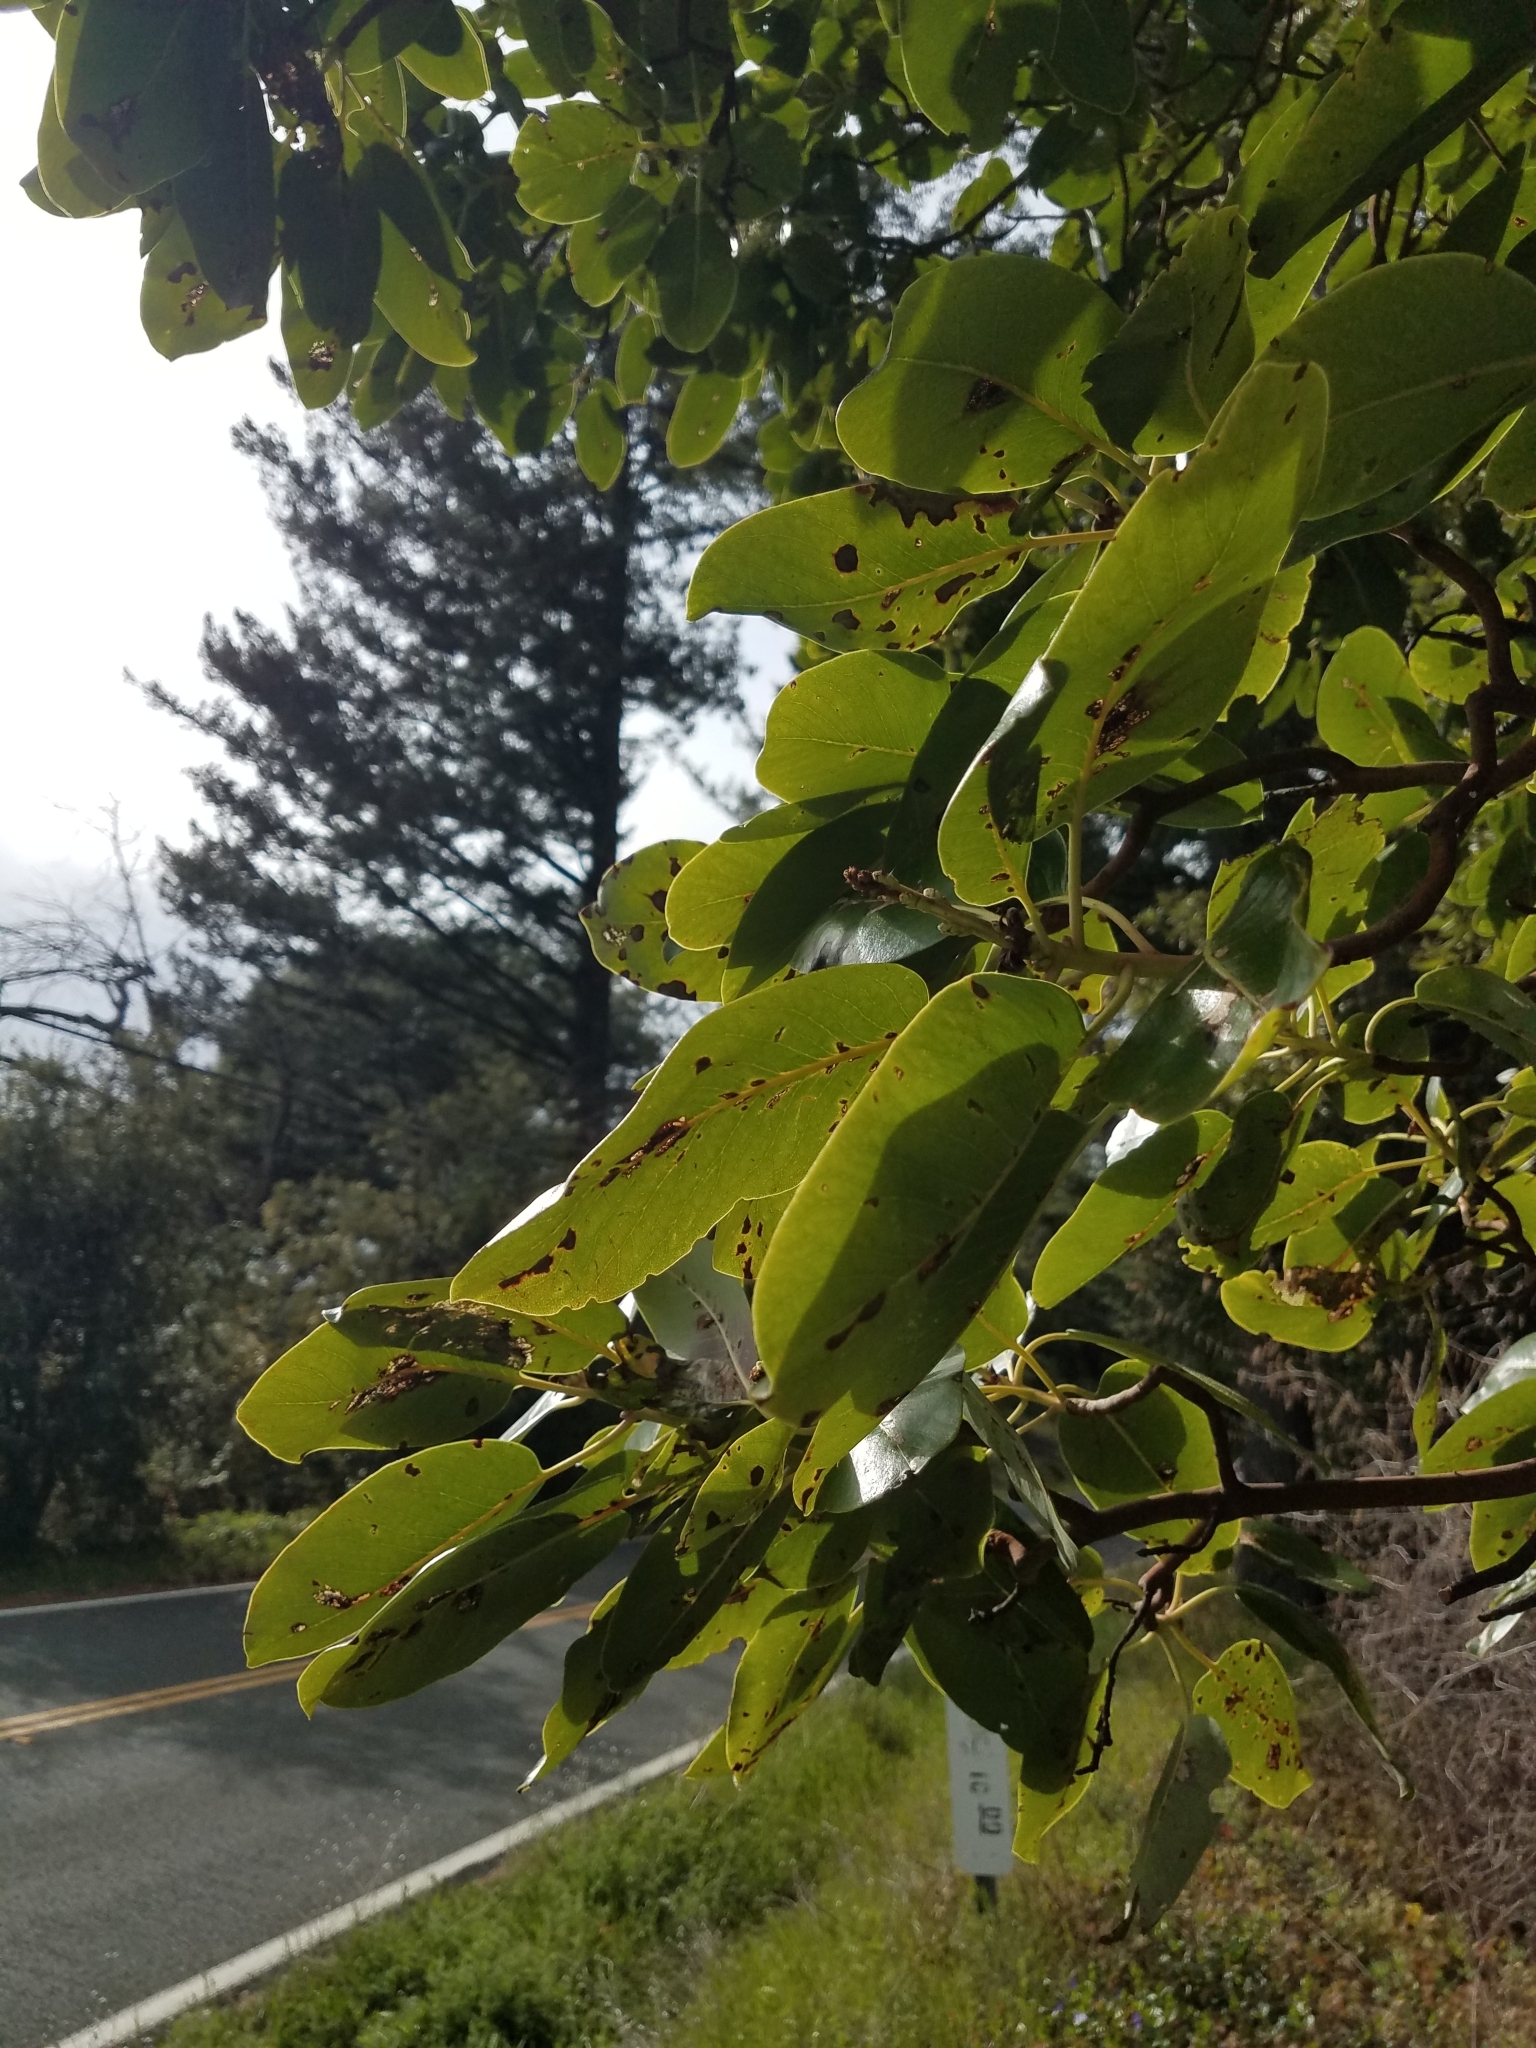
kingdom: Plantae
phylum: Tracheophyta
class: Magnoliopsida
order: Ericales
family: Ericaceae
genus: Arbutus
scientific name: Arbutus menziesii
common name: Pacific madrone
